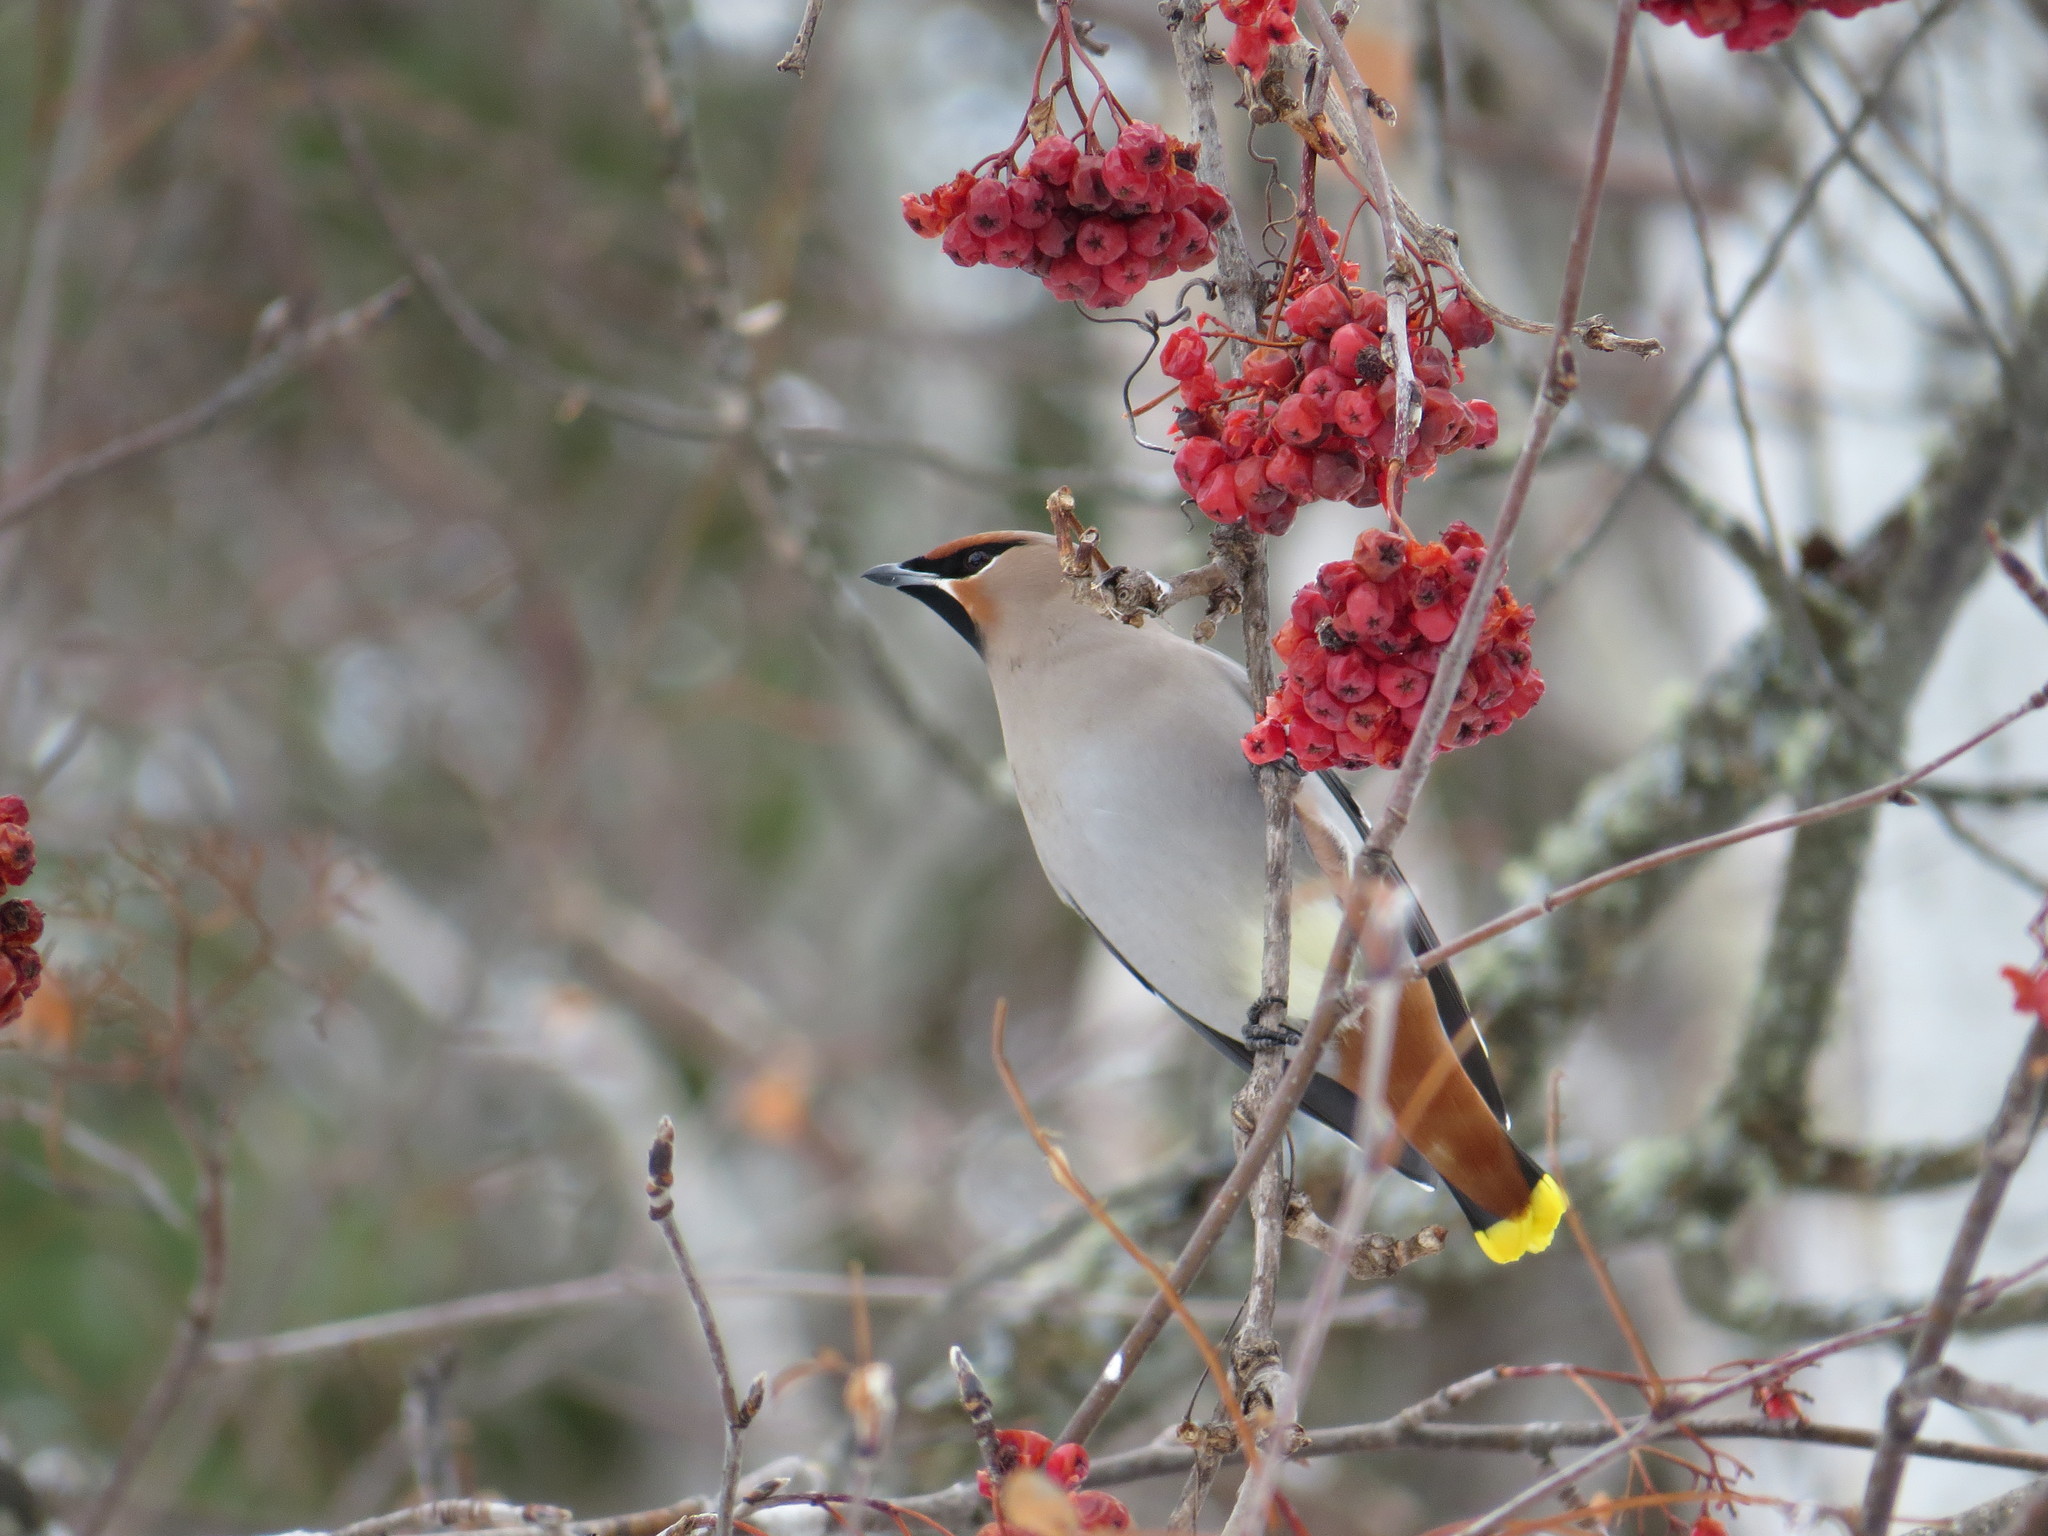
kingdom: Animalia
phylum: Chordata
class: Aves
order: Passeriformes
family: Bombycillidae
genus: Bombycilla
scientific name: Bombycilla garrulus
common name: Bohemian waxwing
